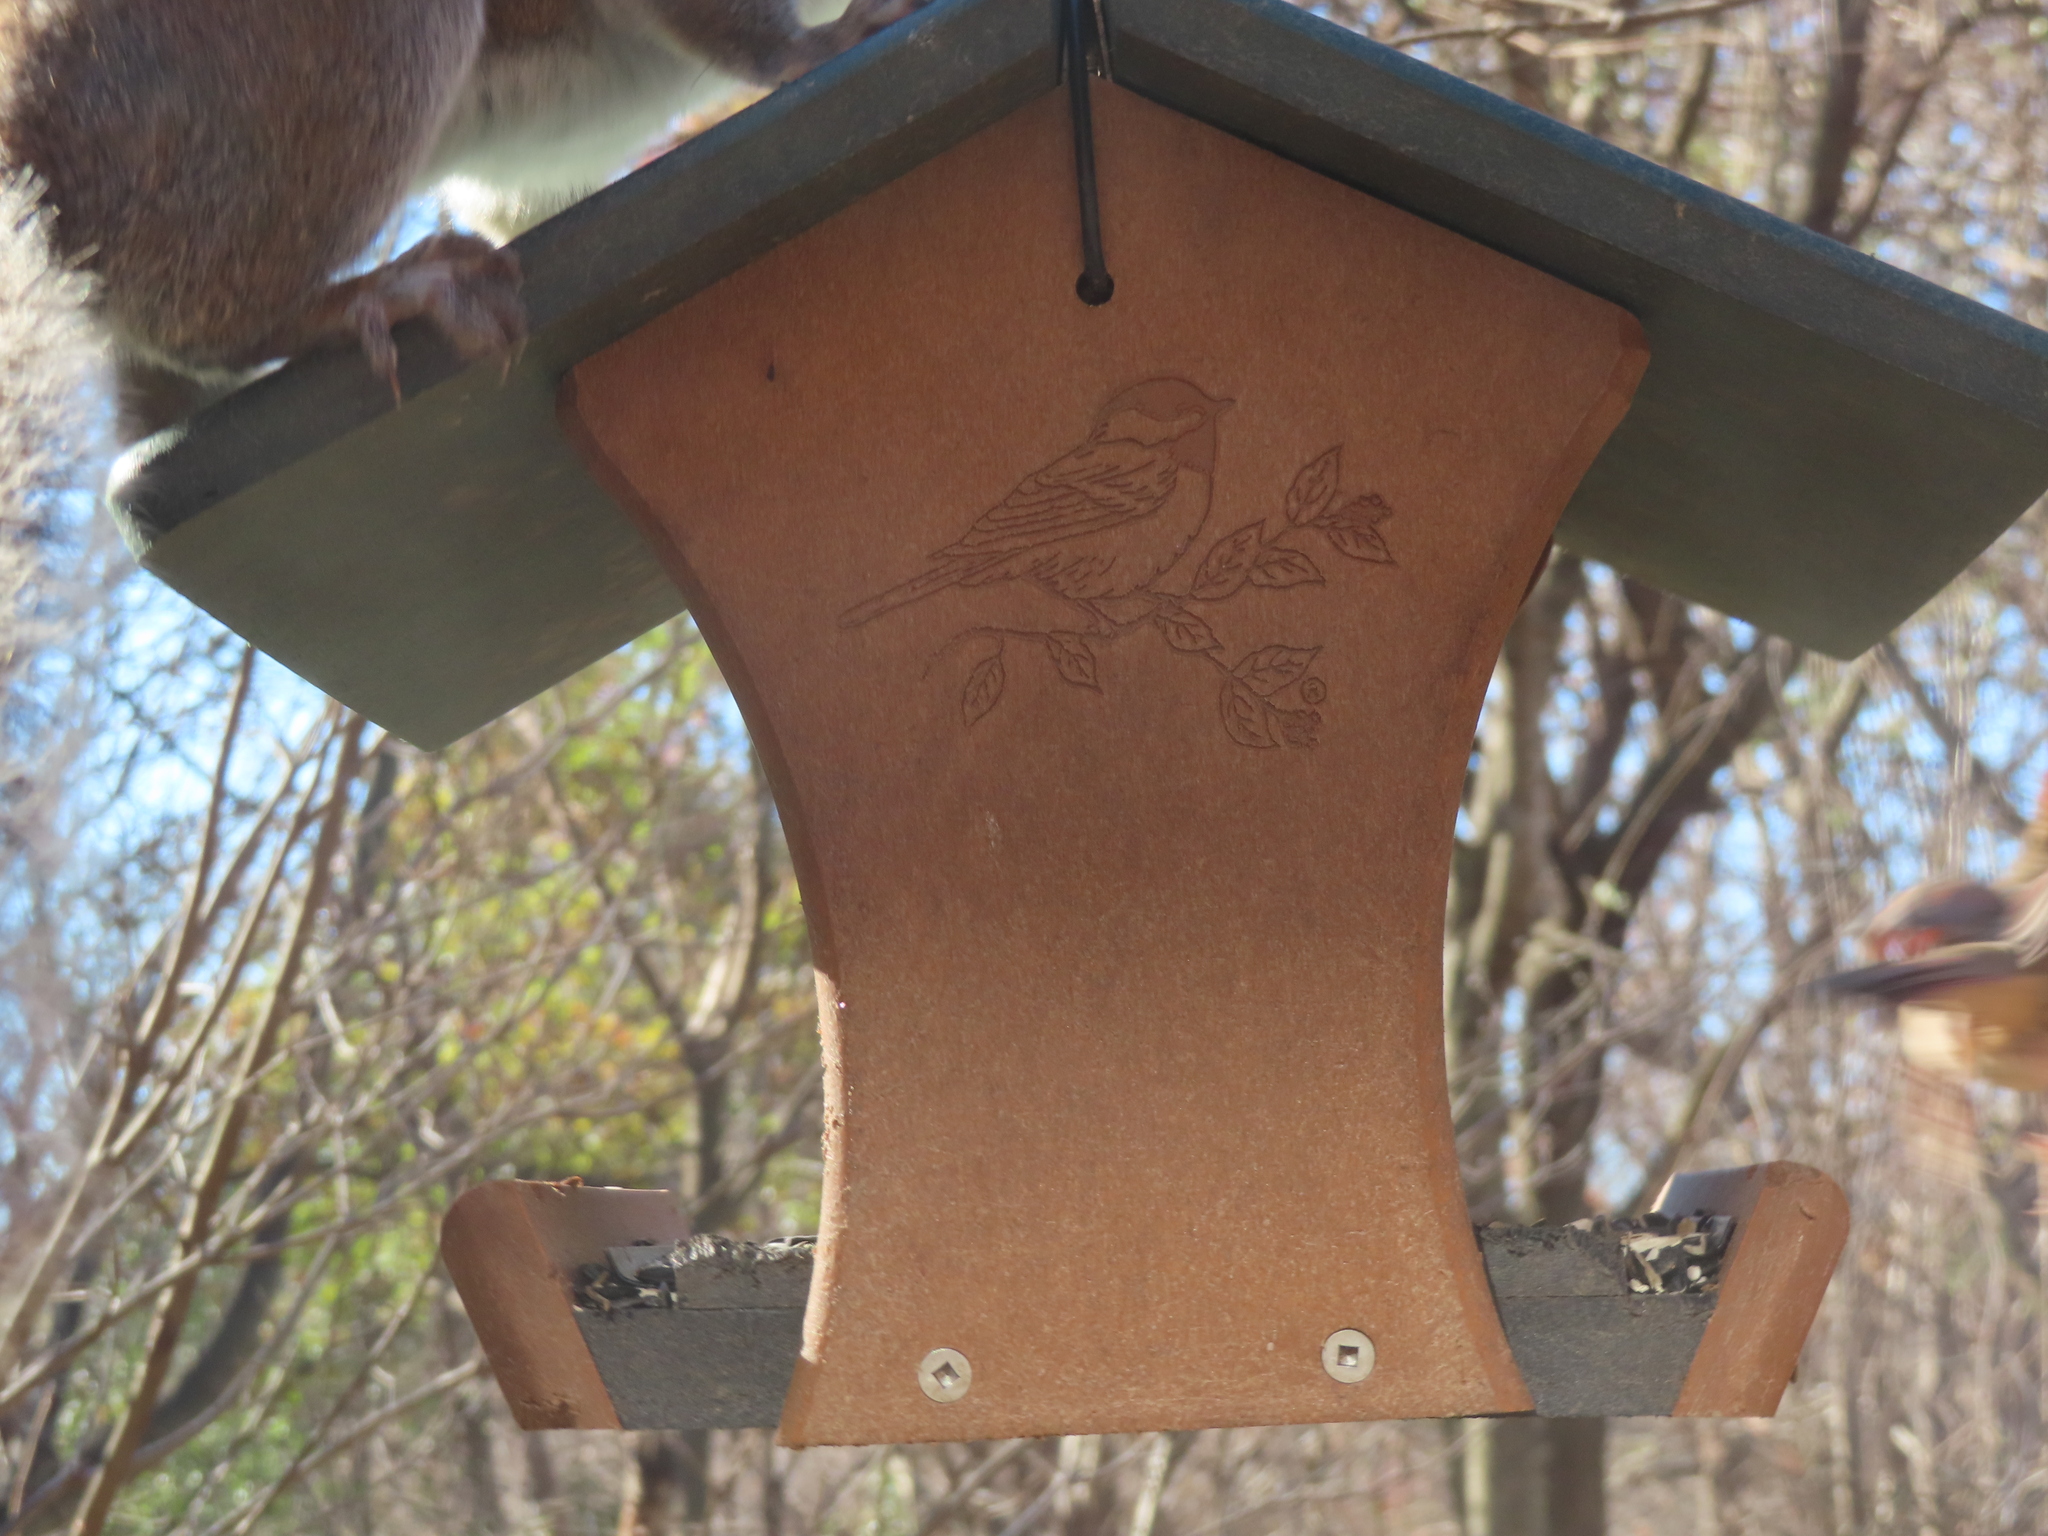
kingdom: Animalia
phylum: Chordata
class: Mammalia
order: Rodentia
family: Sciuridae
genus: Sciurus
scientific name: Sciurus carolinensis
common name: Eastern gray squirrel
